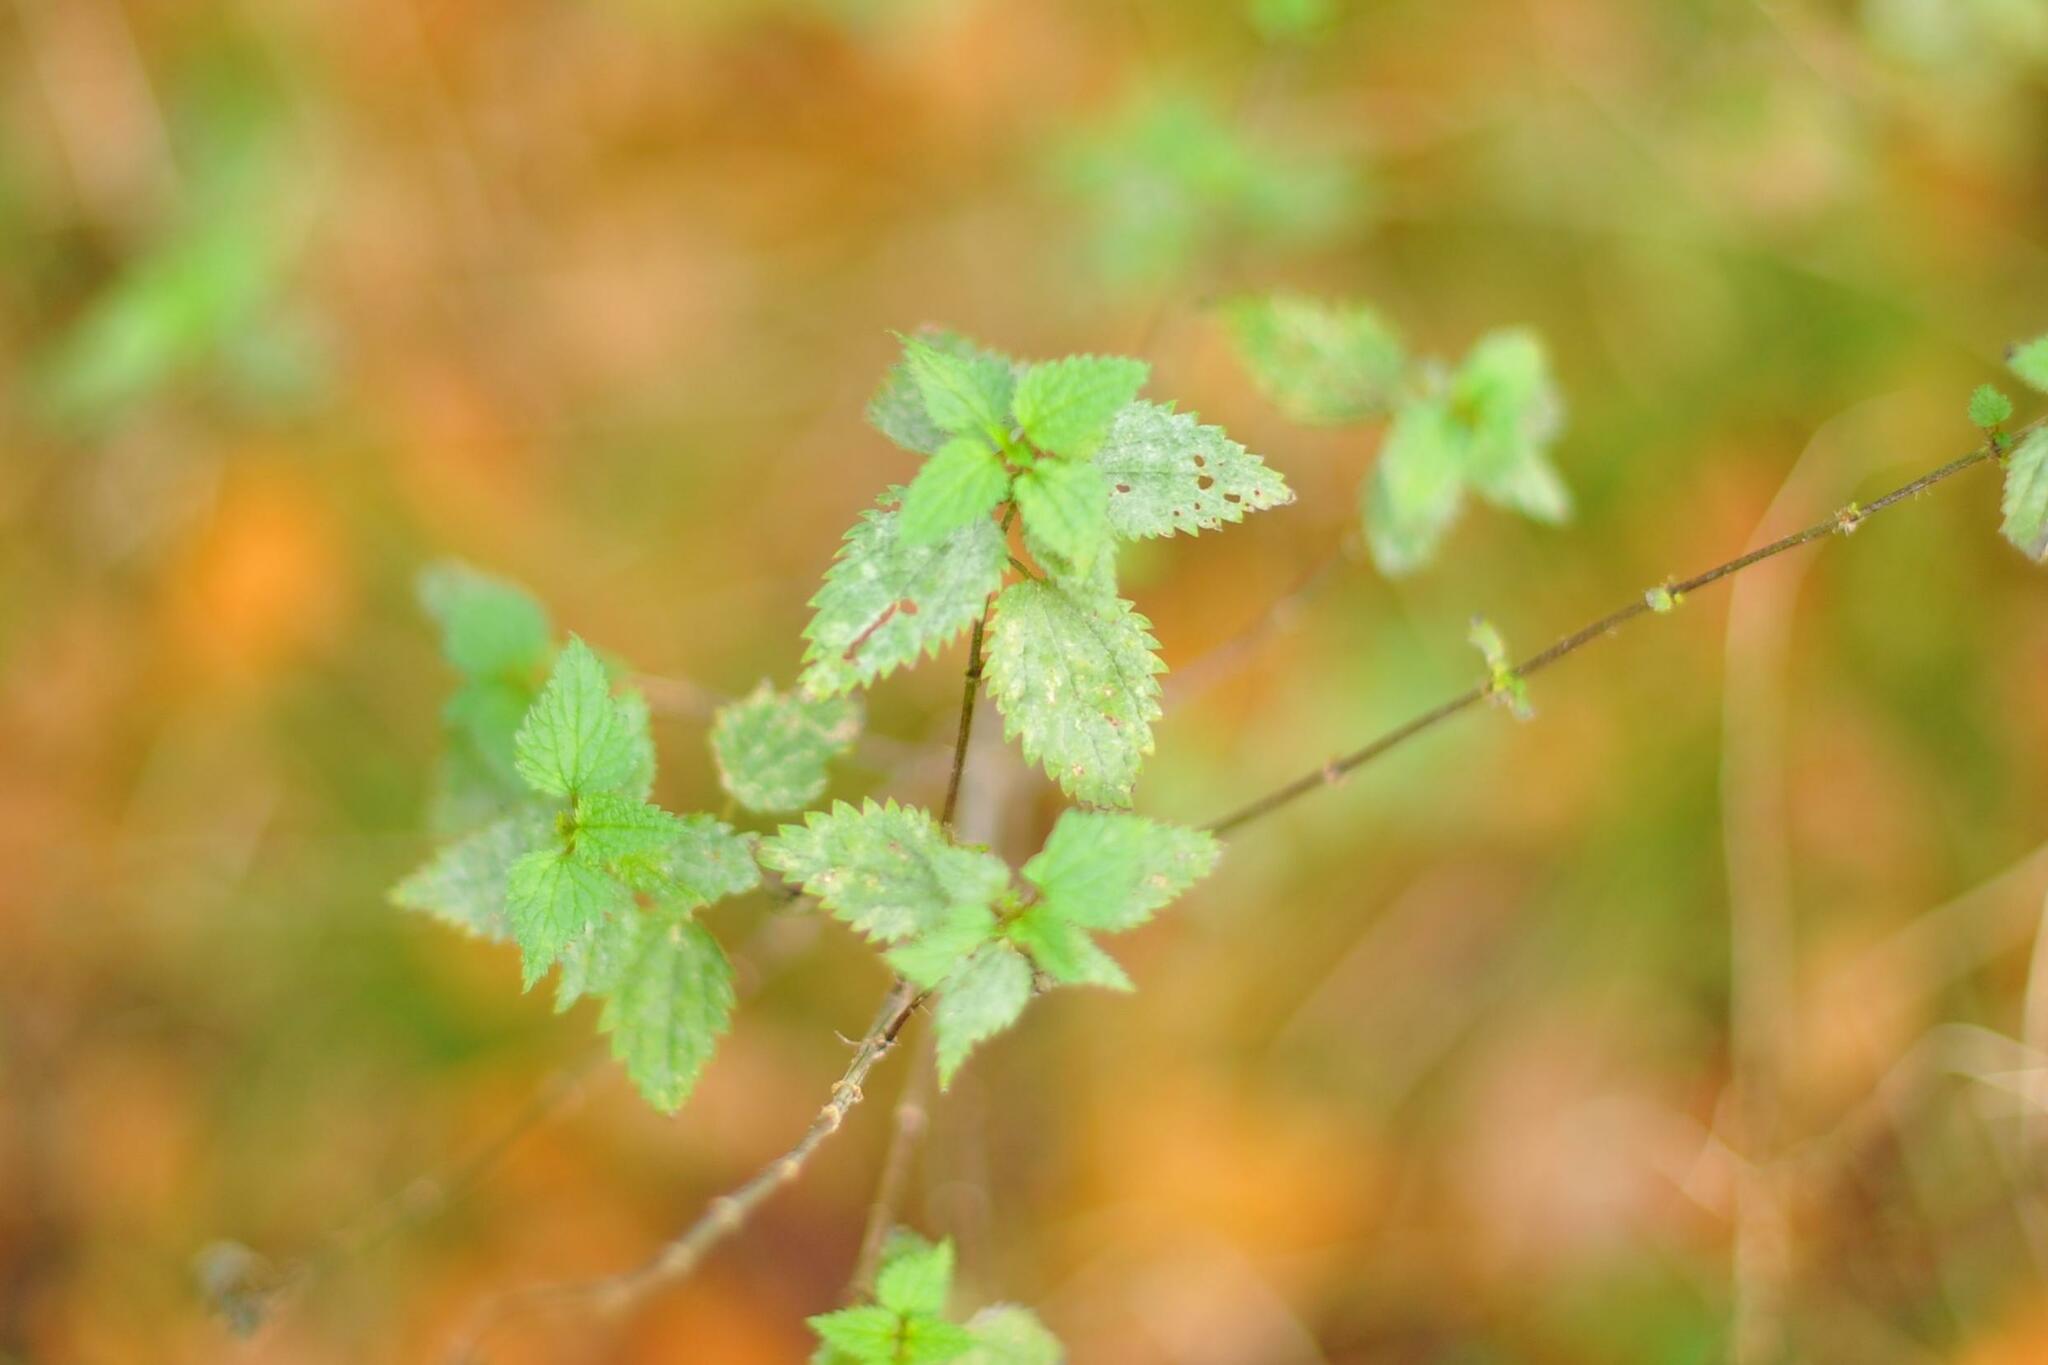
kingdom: Plantae
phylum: Tracheophyta
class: Magnoliopsida
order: Rosales
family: Urticaceae
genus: Urtica
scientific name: Urtica dioica
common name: Common nettle
